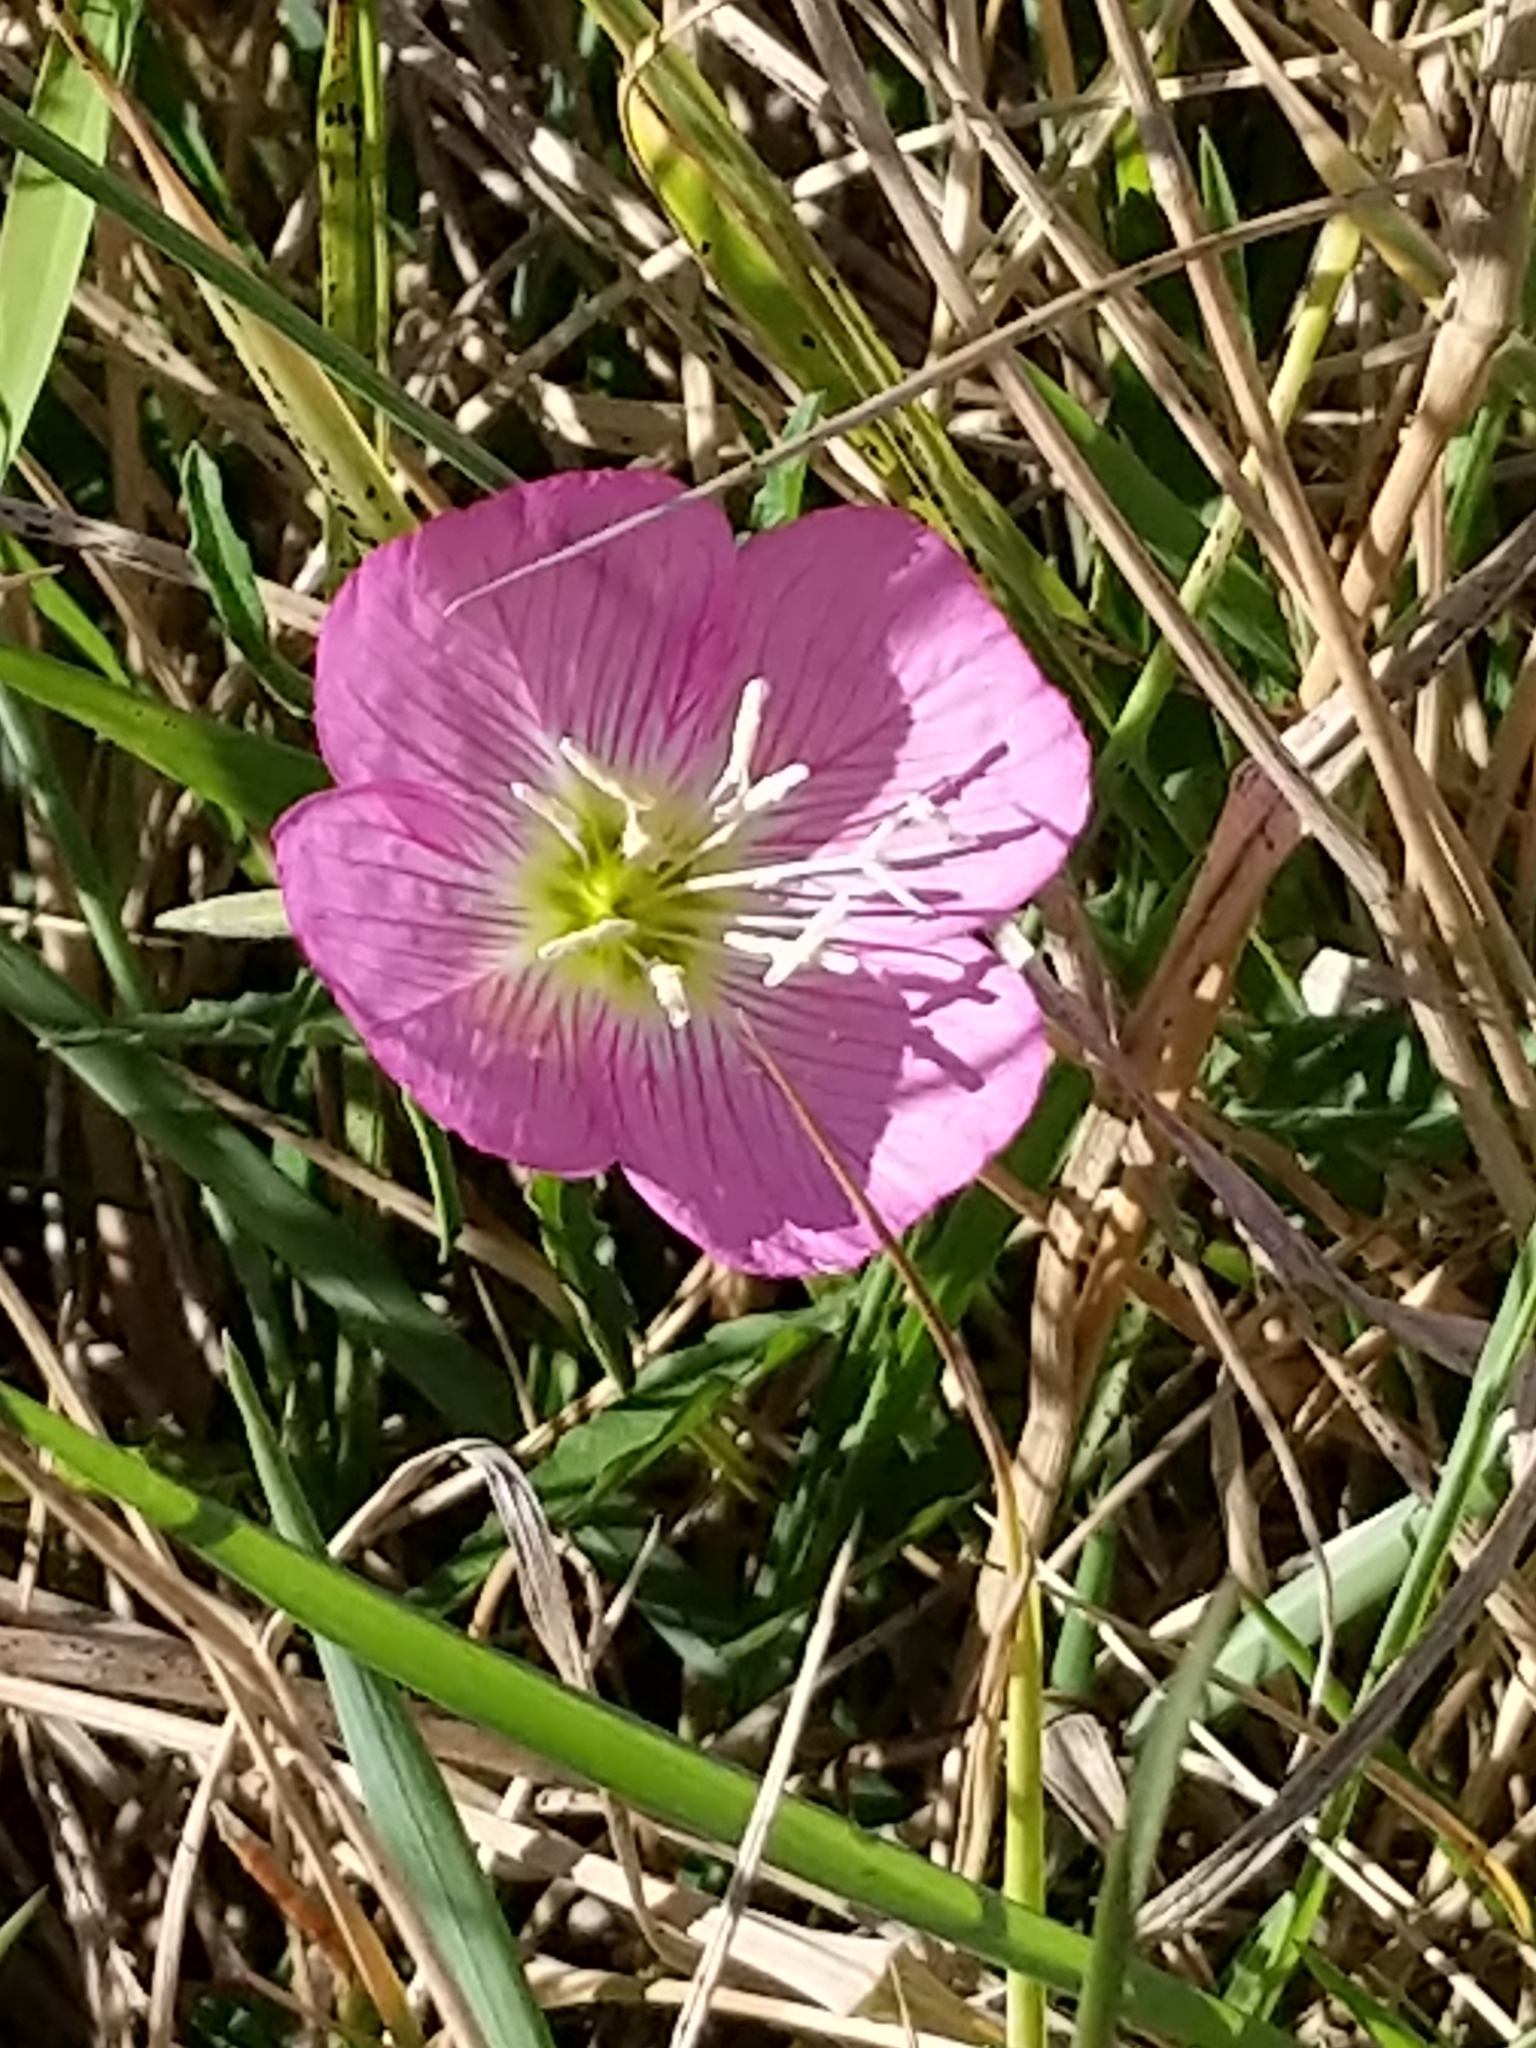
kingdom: Plantae
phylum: Tracheophyta
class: Magnoliopsida
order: Myrtales
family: Onagraceae
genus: Oenothera
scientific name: Oenothera speciosa
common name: White evening-primrose
